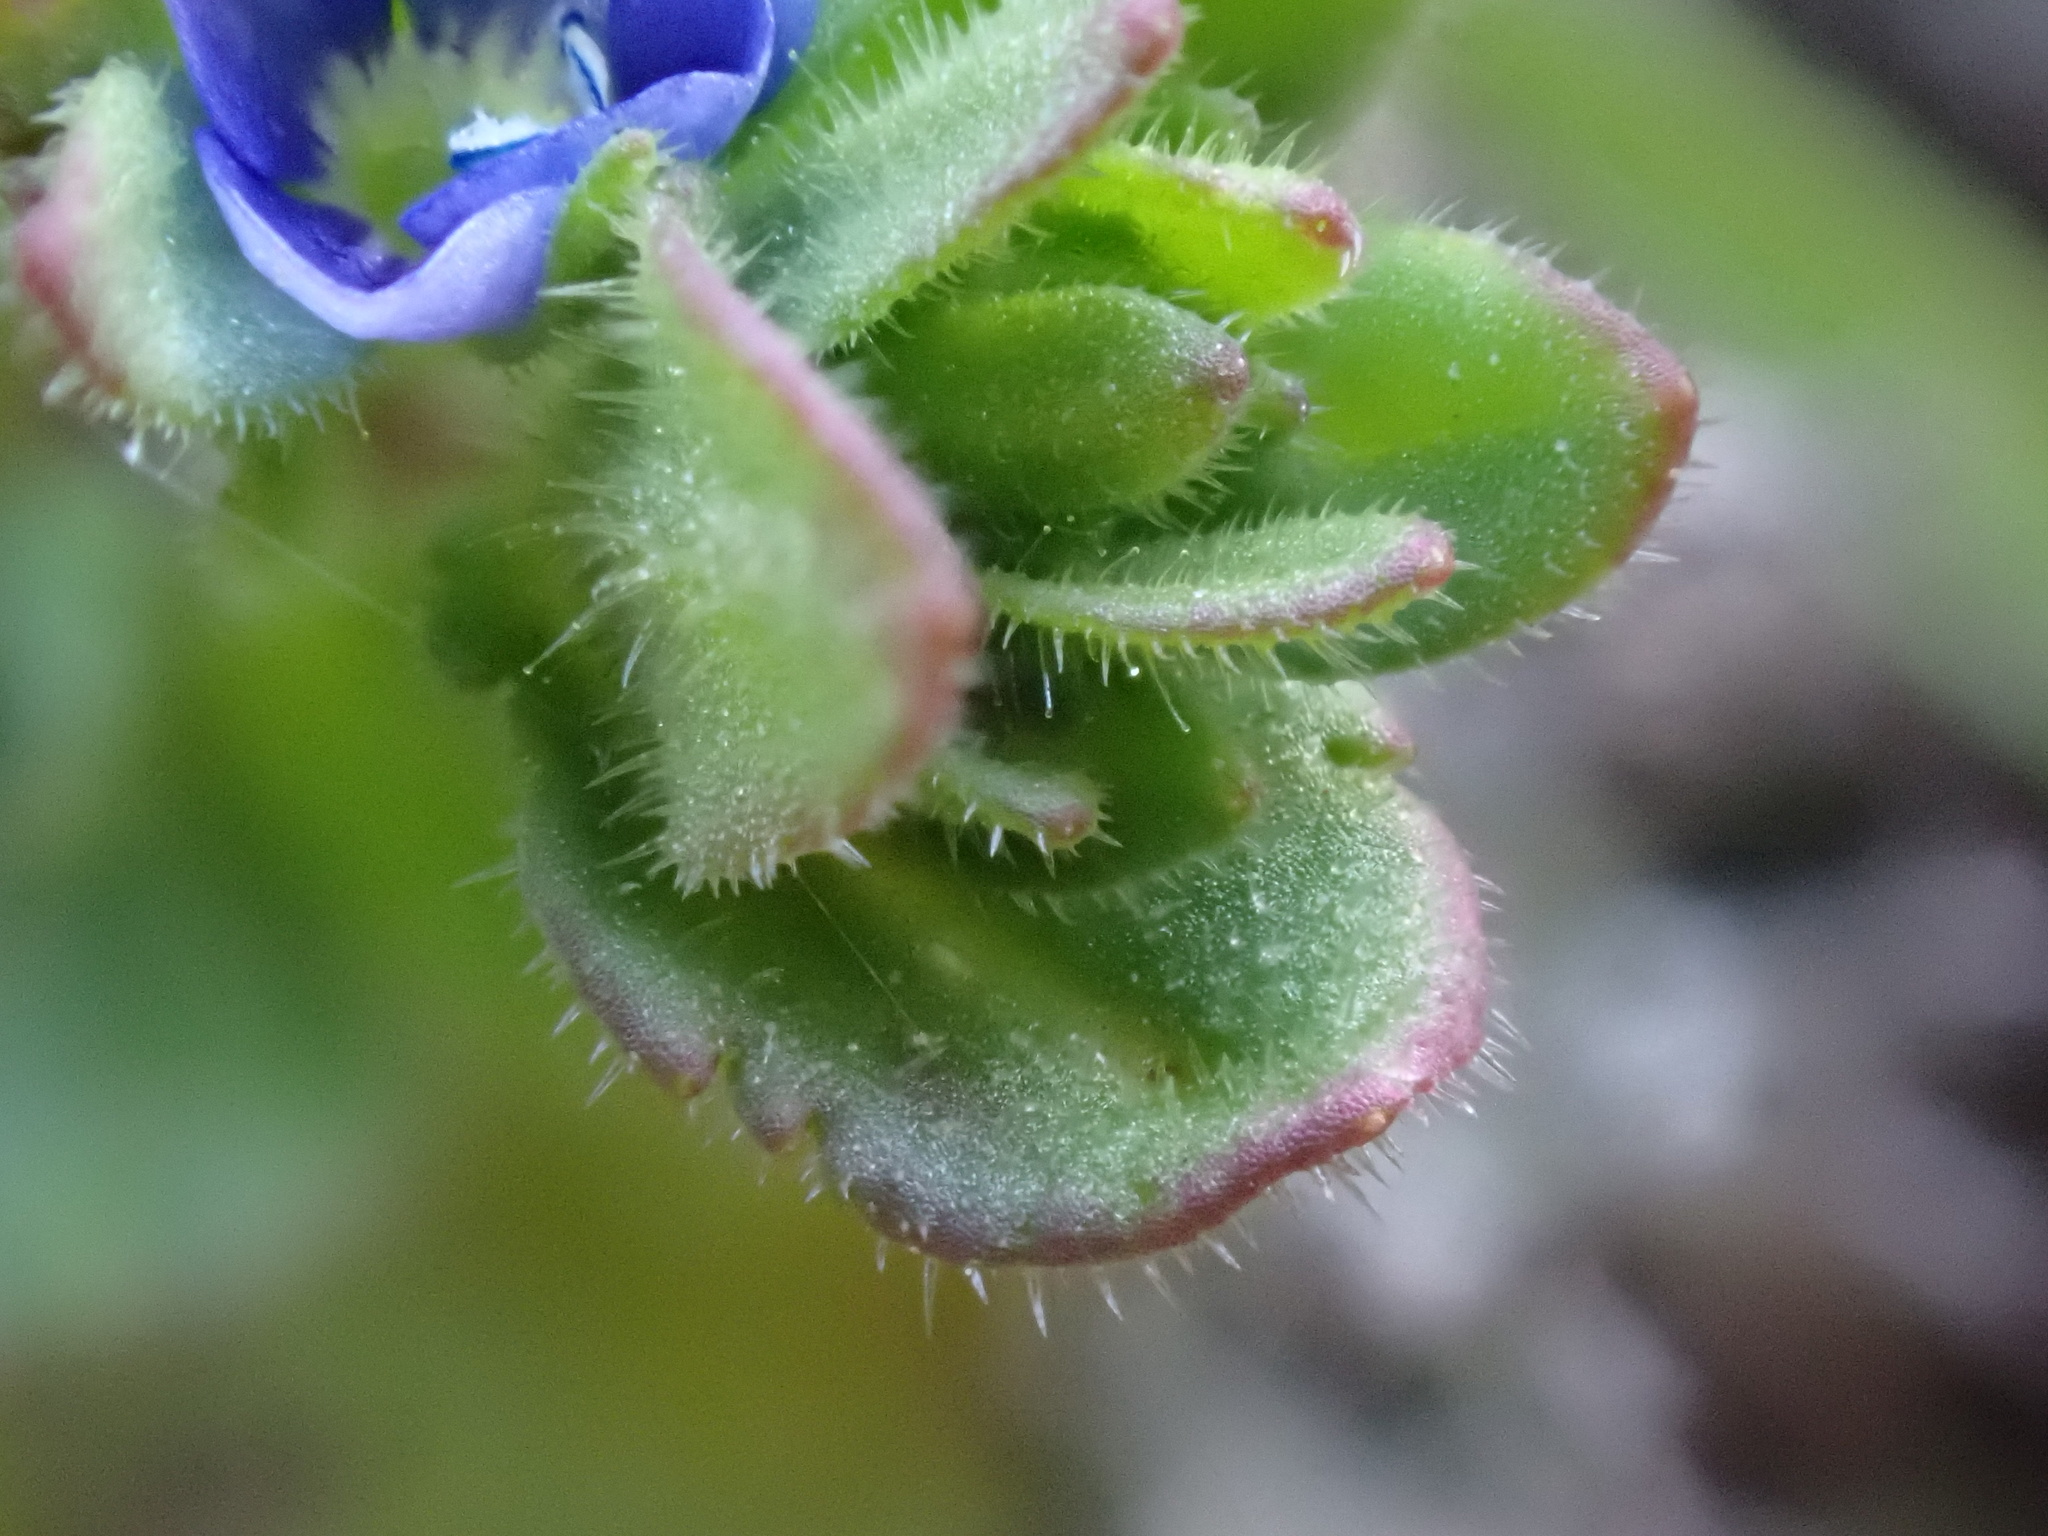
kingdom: Plantae
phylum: Tracheophyta
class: Magnoliopsida
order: Lamiales
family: Plantaginaceae
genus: Veronica
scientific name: Veronica arvensis
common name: Corn speedwell
